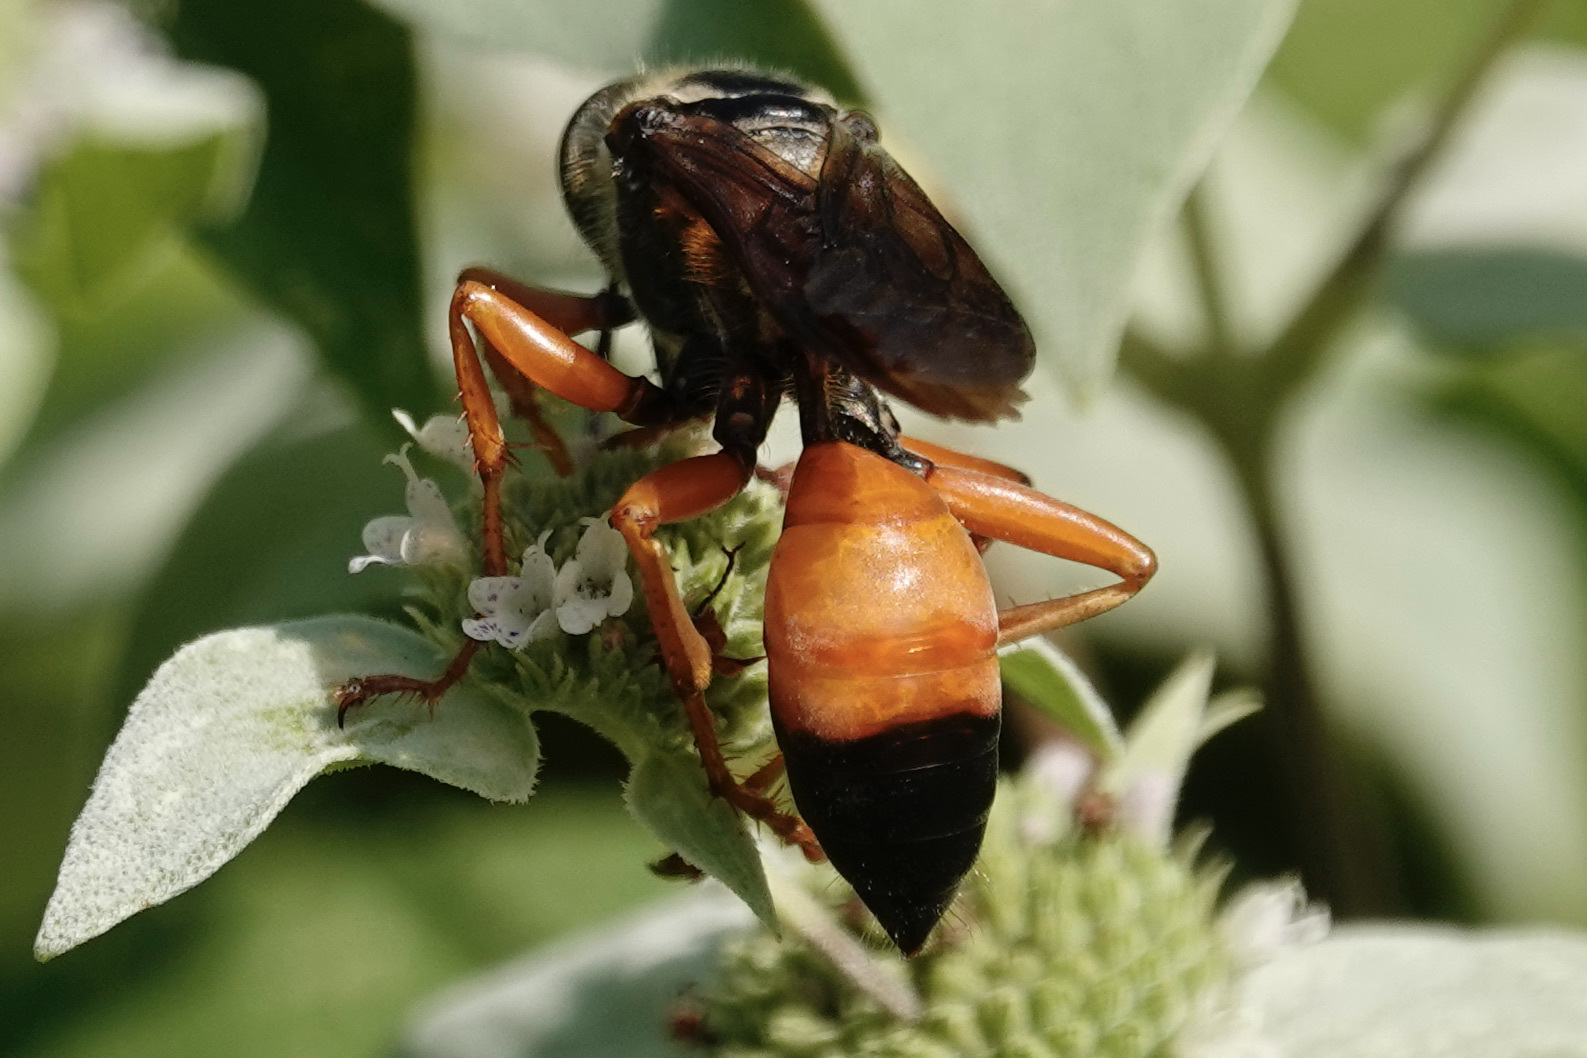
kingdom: Animalia
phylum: Arthropoda
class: Insecta
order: Hymenoptera
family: Sphecidae
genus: Sphex
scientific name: Sphex ichneumoneus
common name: Great golden digger wasp
